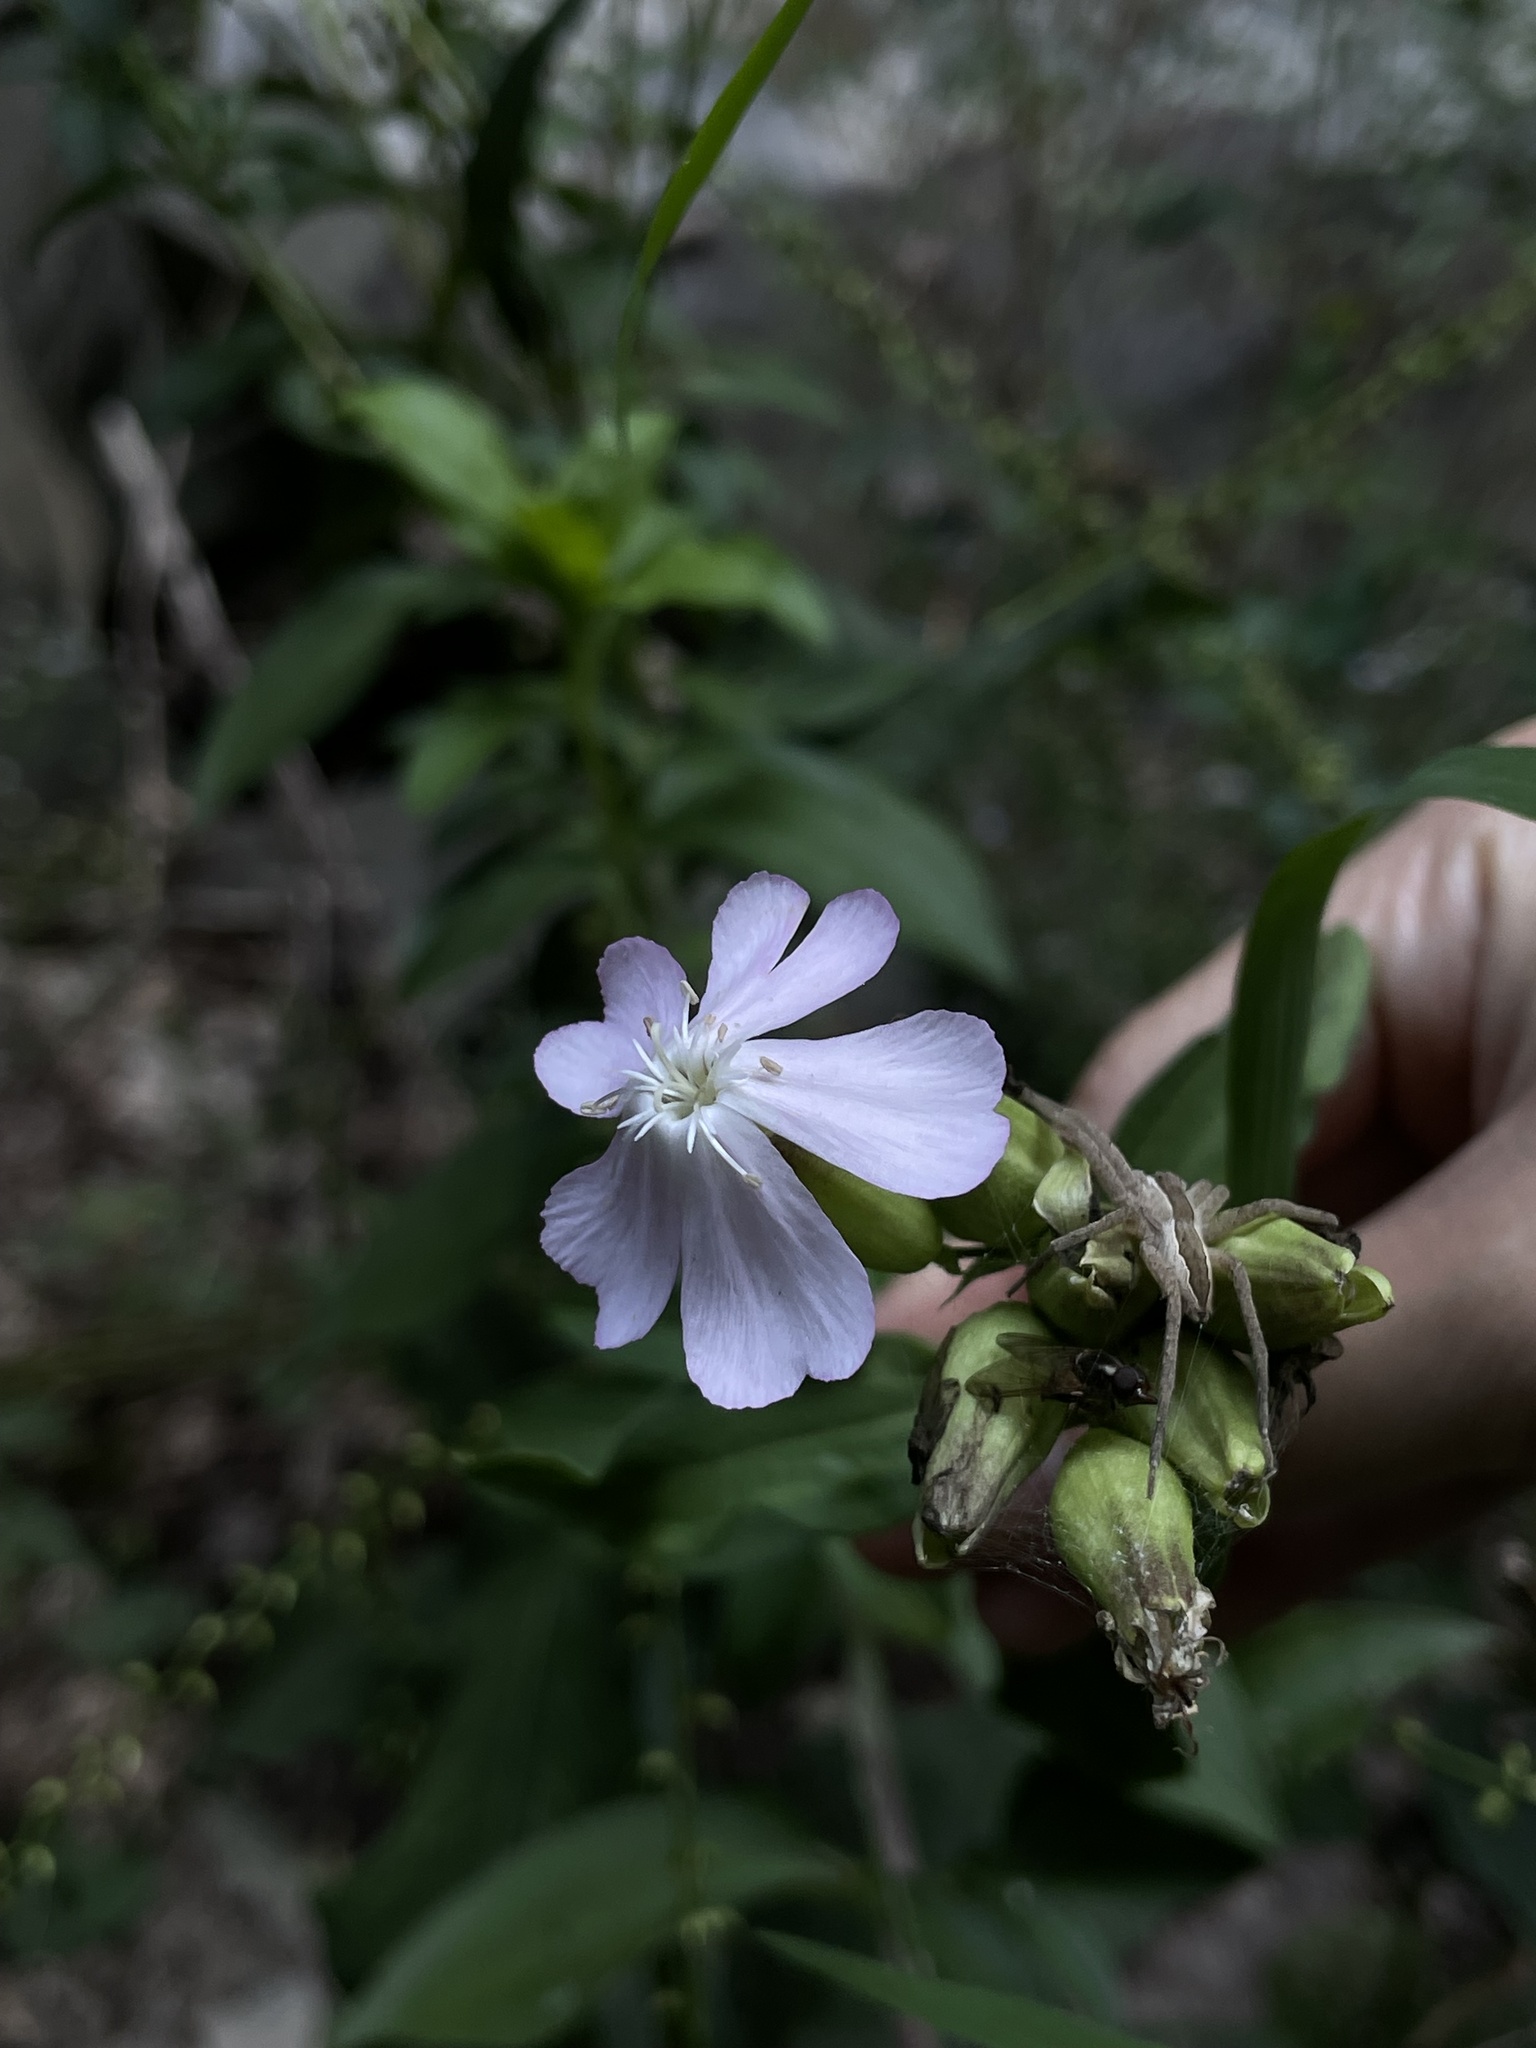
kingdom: Plantae
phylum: Tracheophyta
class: Magnoliopsida
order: Caryophyllales
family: Caryophyllaceae
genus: Saponaria
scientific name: Saponaria officinalis
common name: Soapwort
